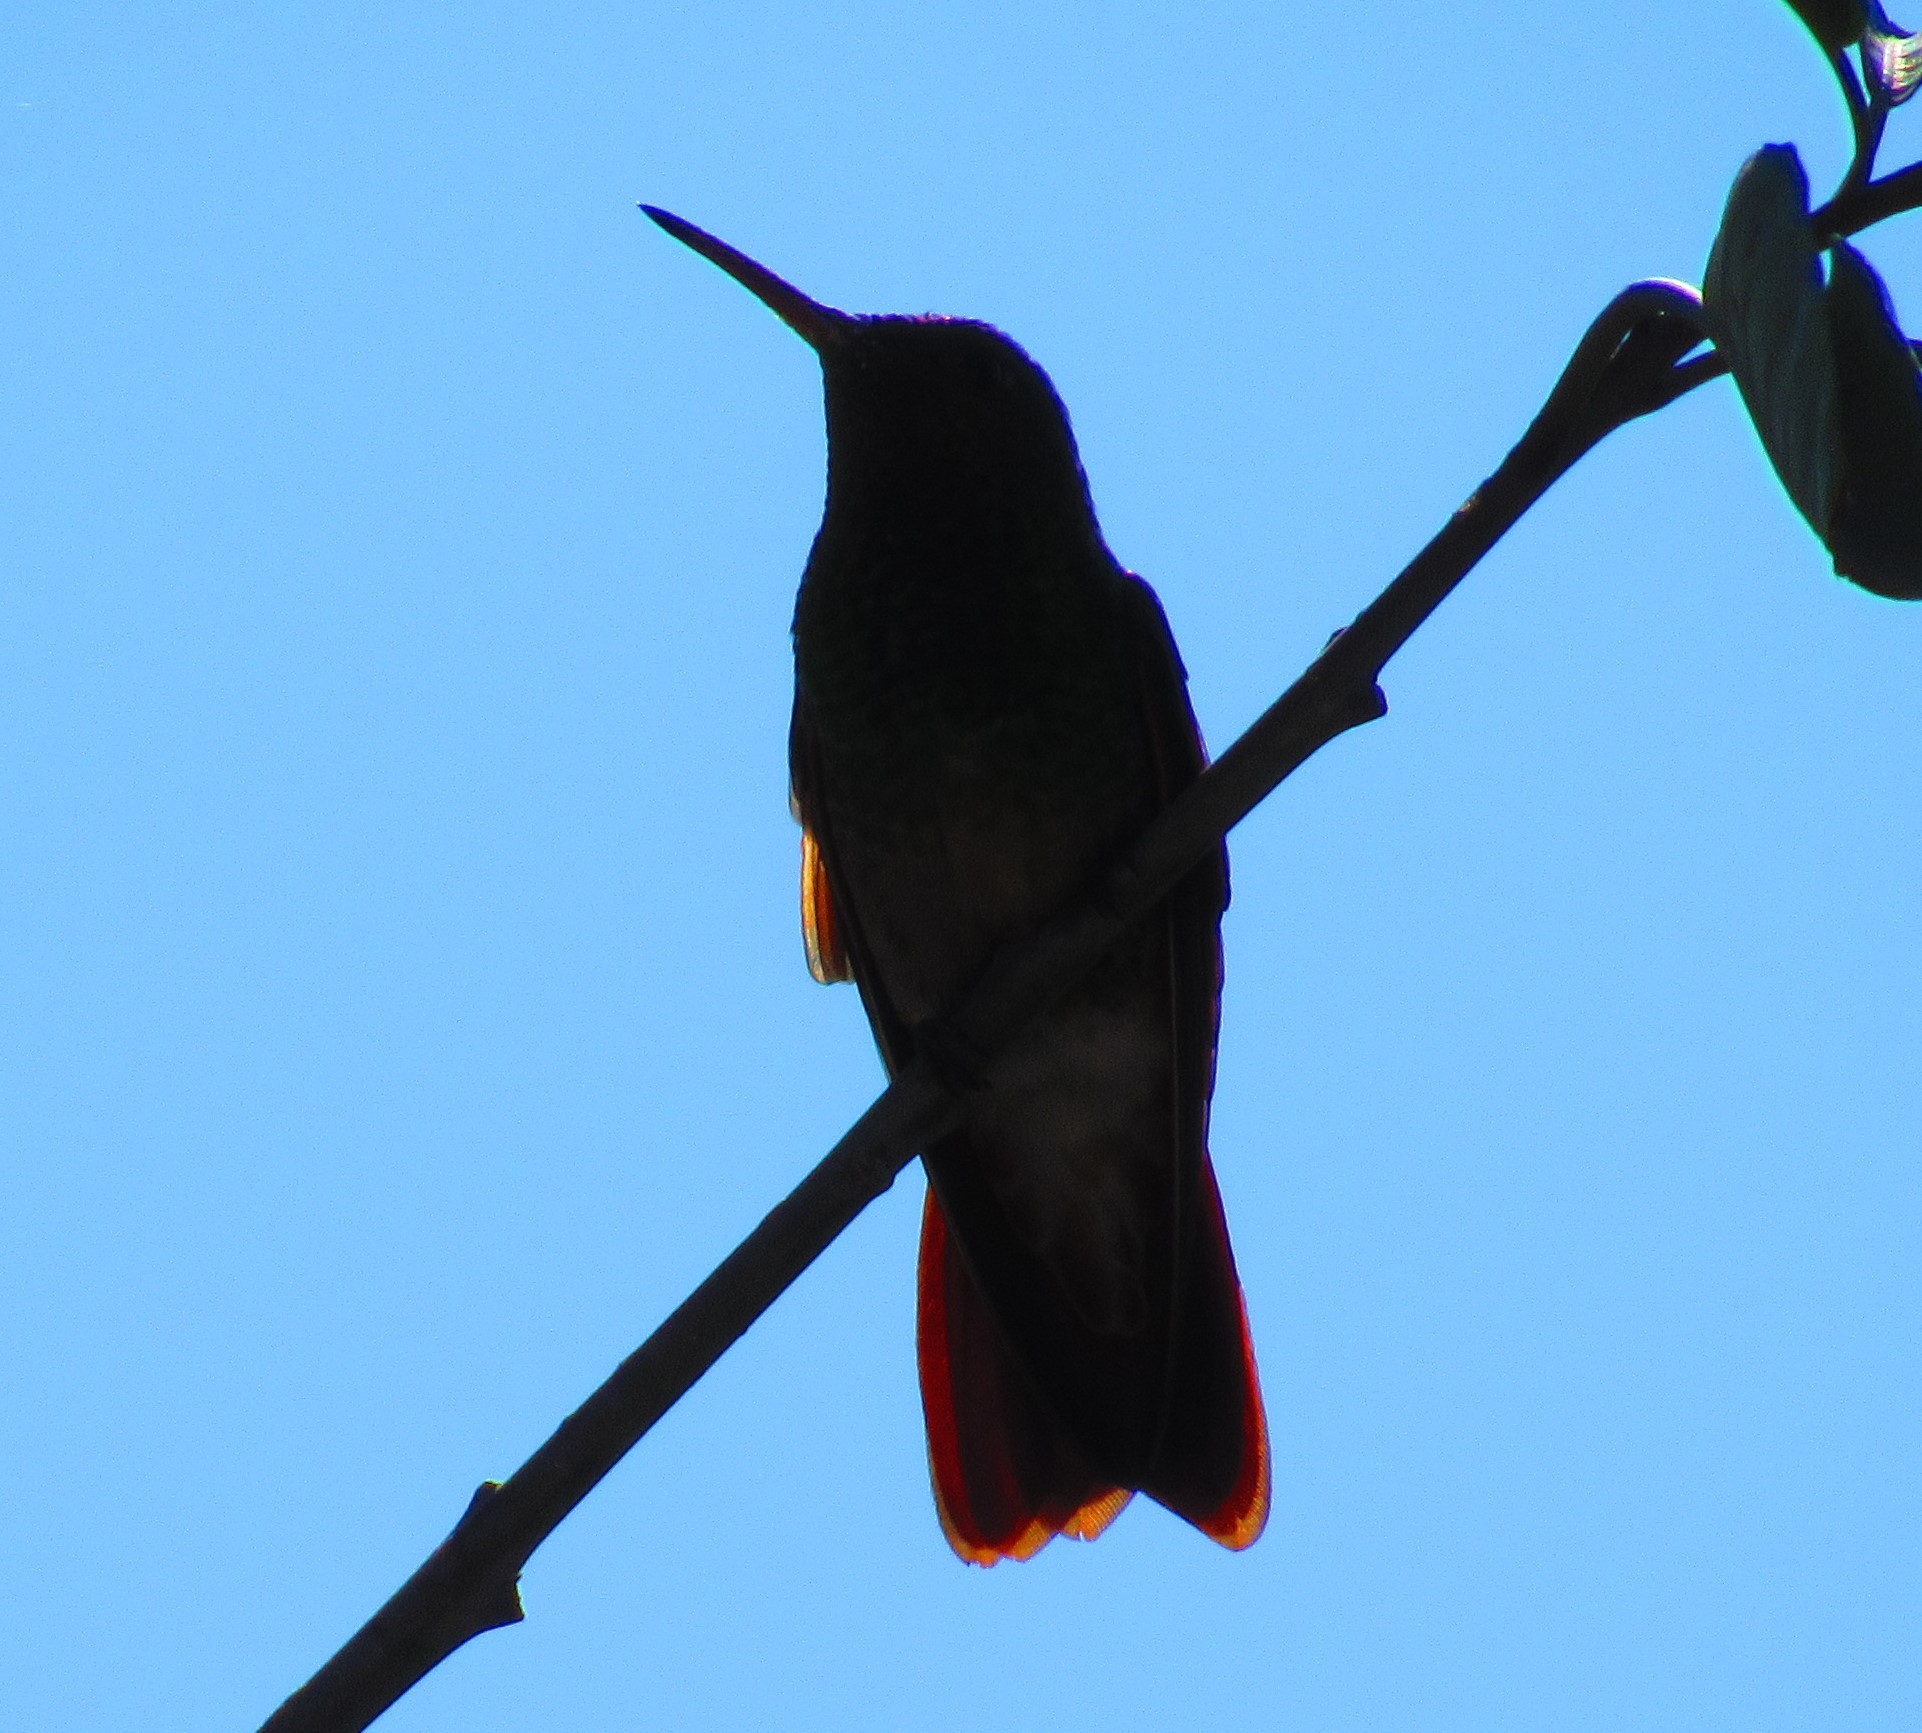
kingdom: Animalia
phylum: Chordata
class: Aves
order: Apodiformes
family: Trochilidae
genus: Saucerottia
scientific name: Saucerottia beryllina
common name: Berylline hummingbird
